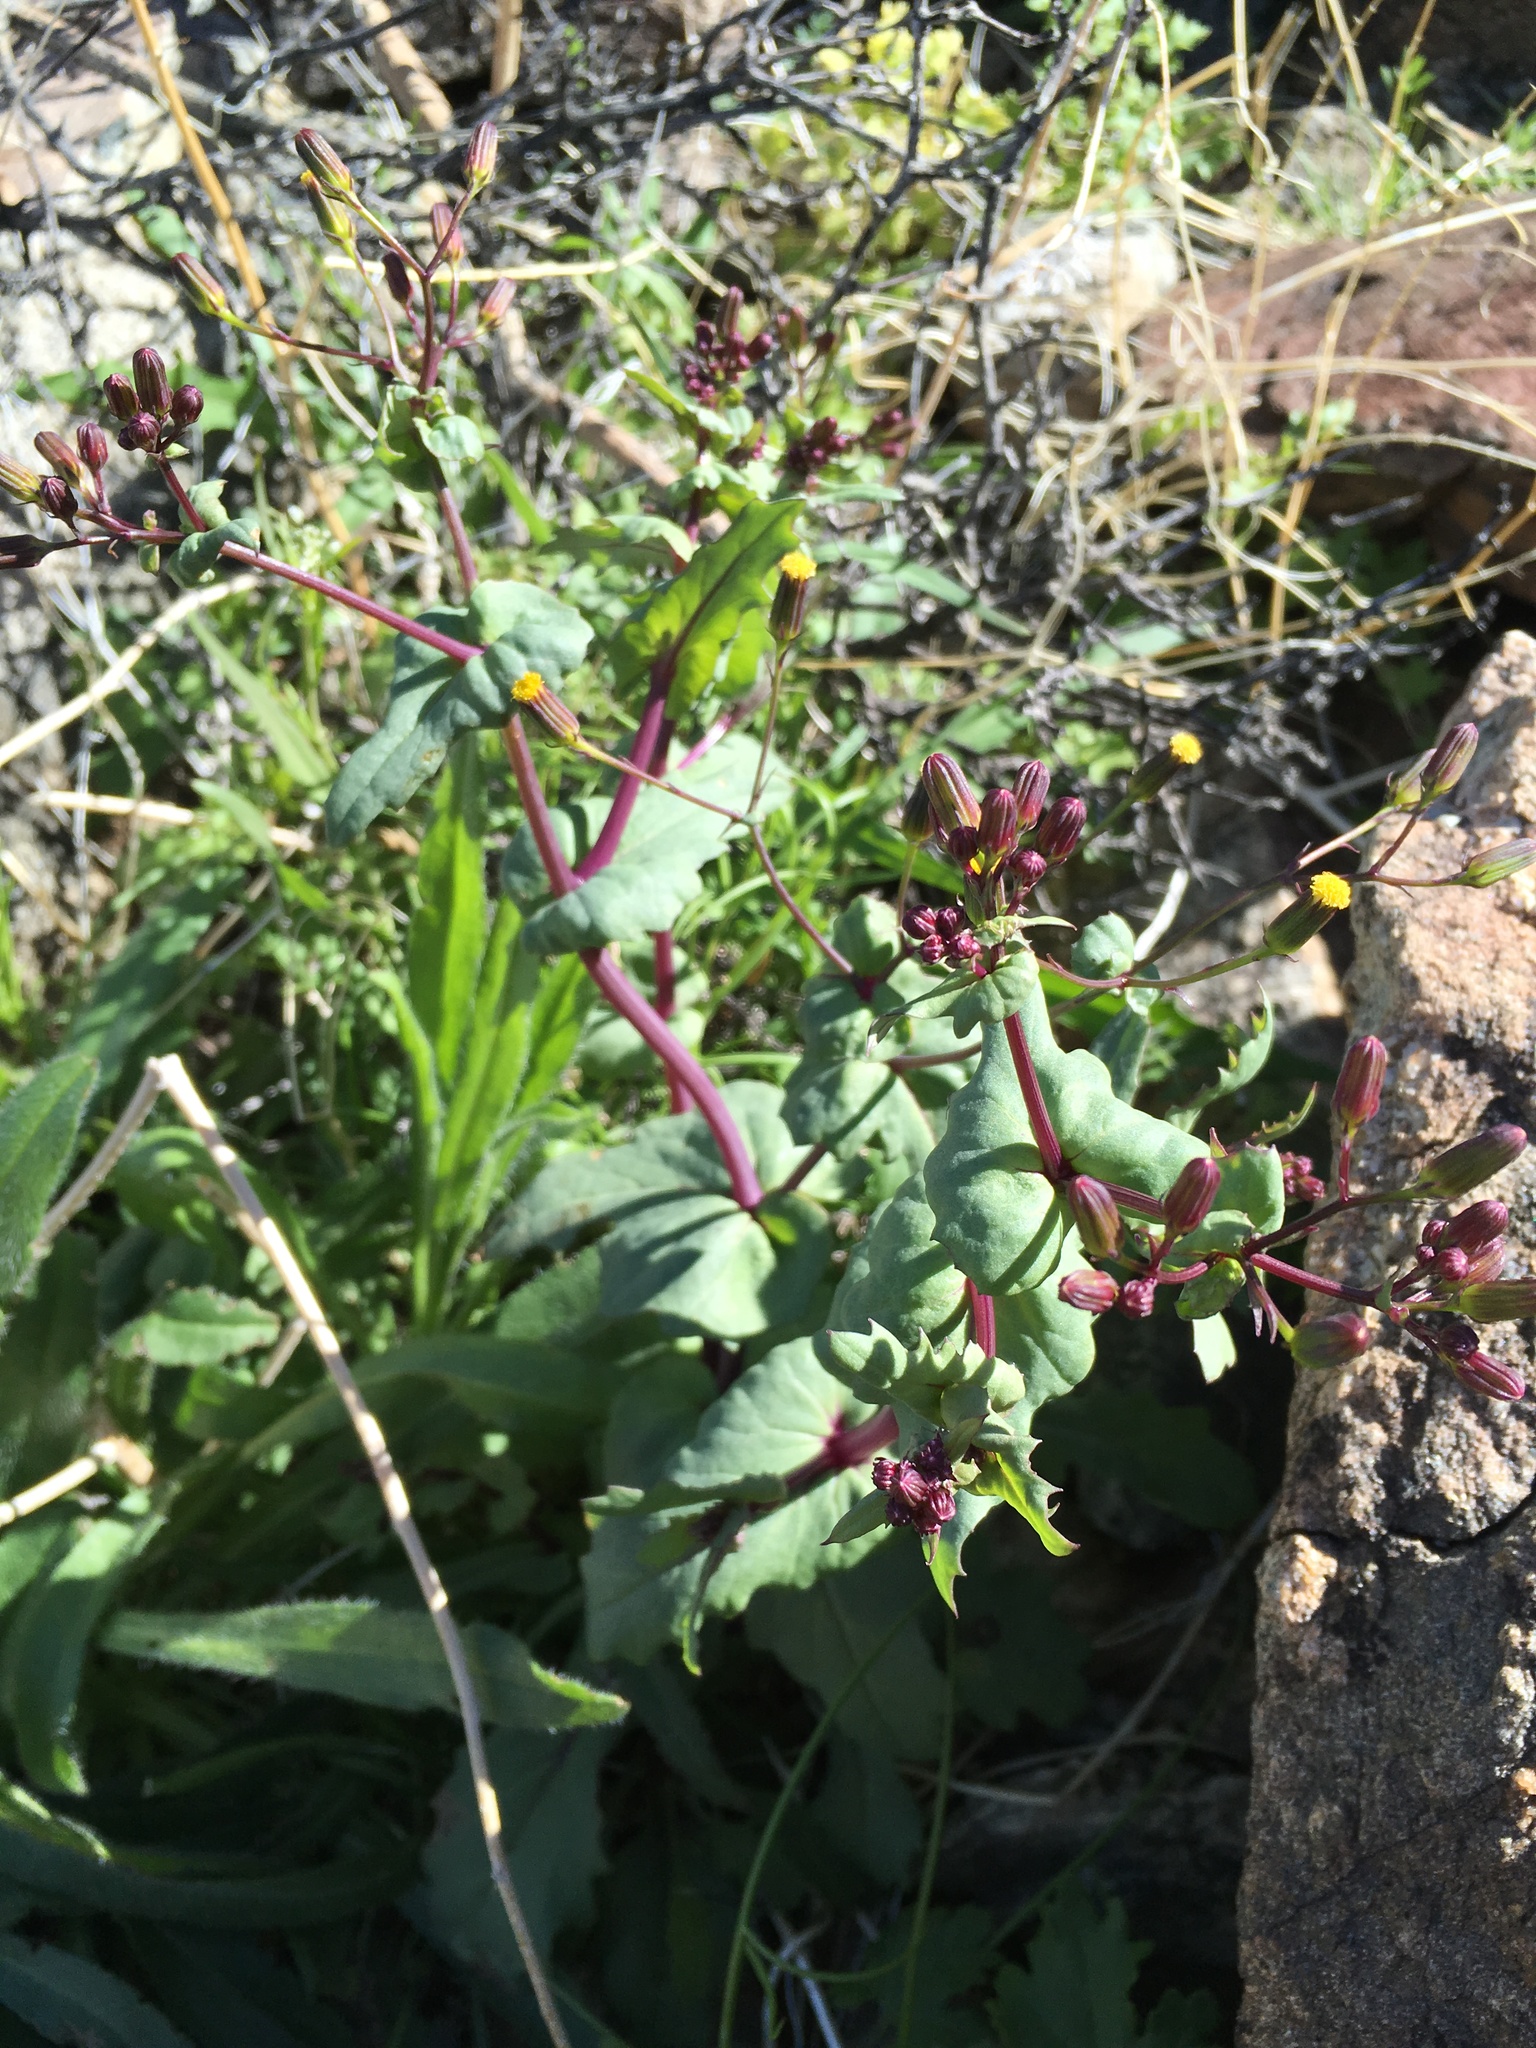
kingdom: Plantae
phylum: Tracheophyta
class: Magnoliopsida
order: Asterales
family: Asteraceae
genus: Senecio
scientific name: Senecio mohavensis
